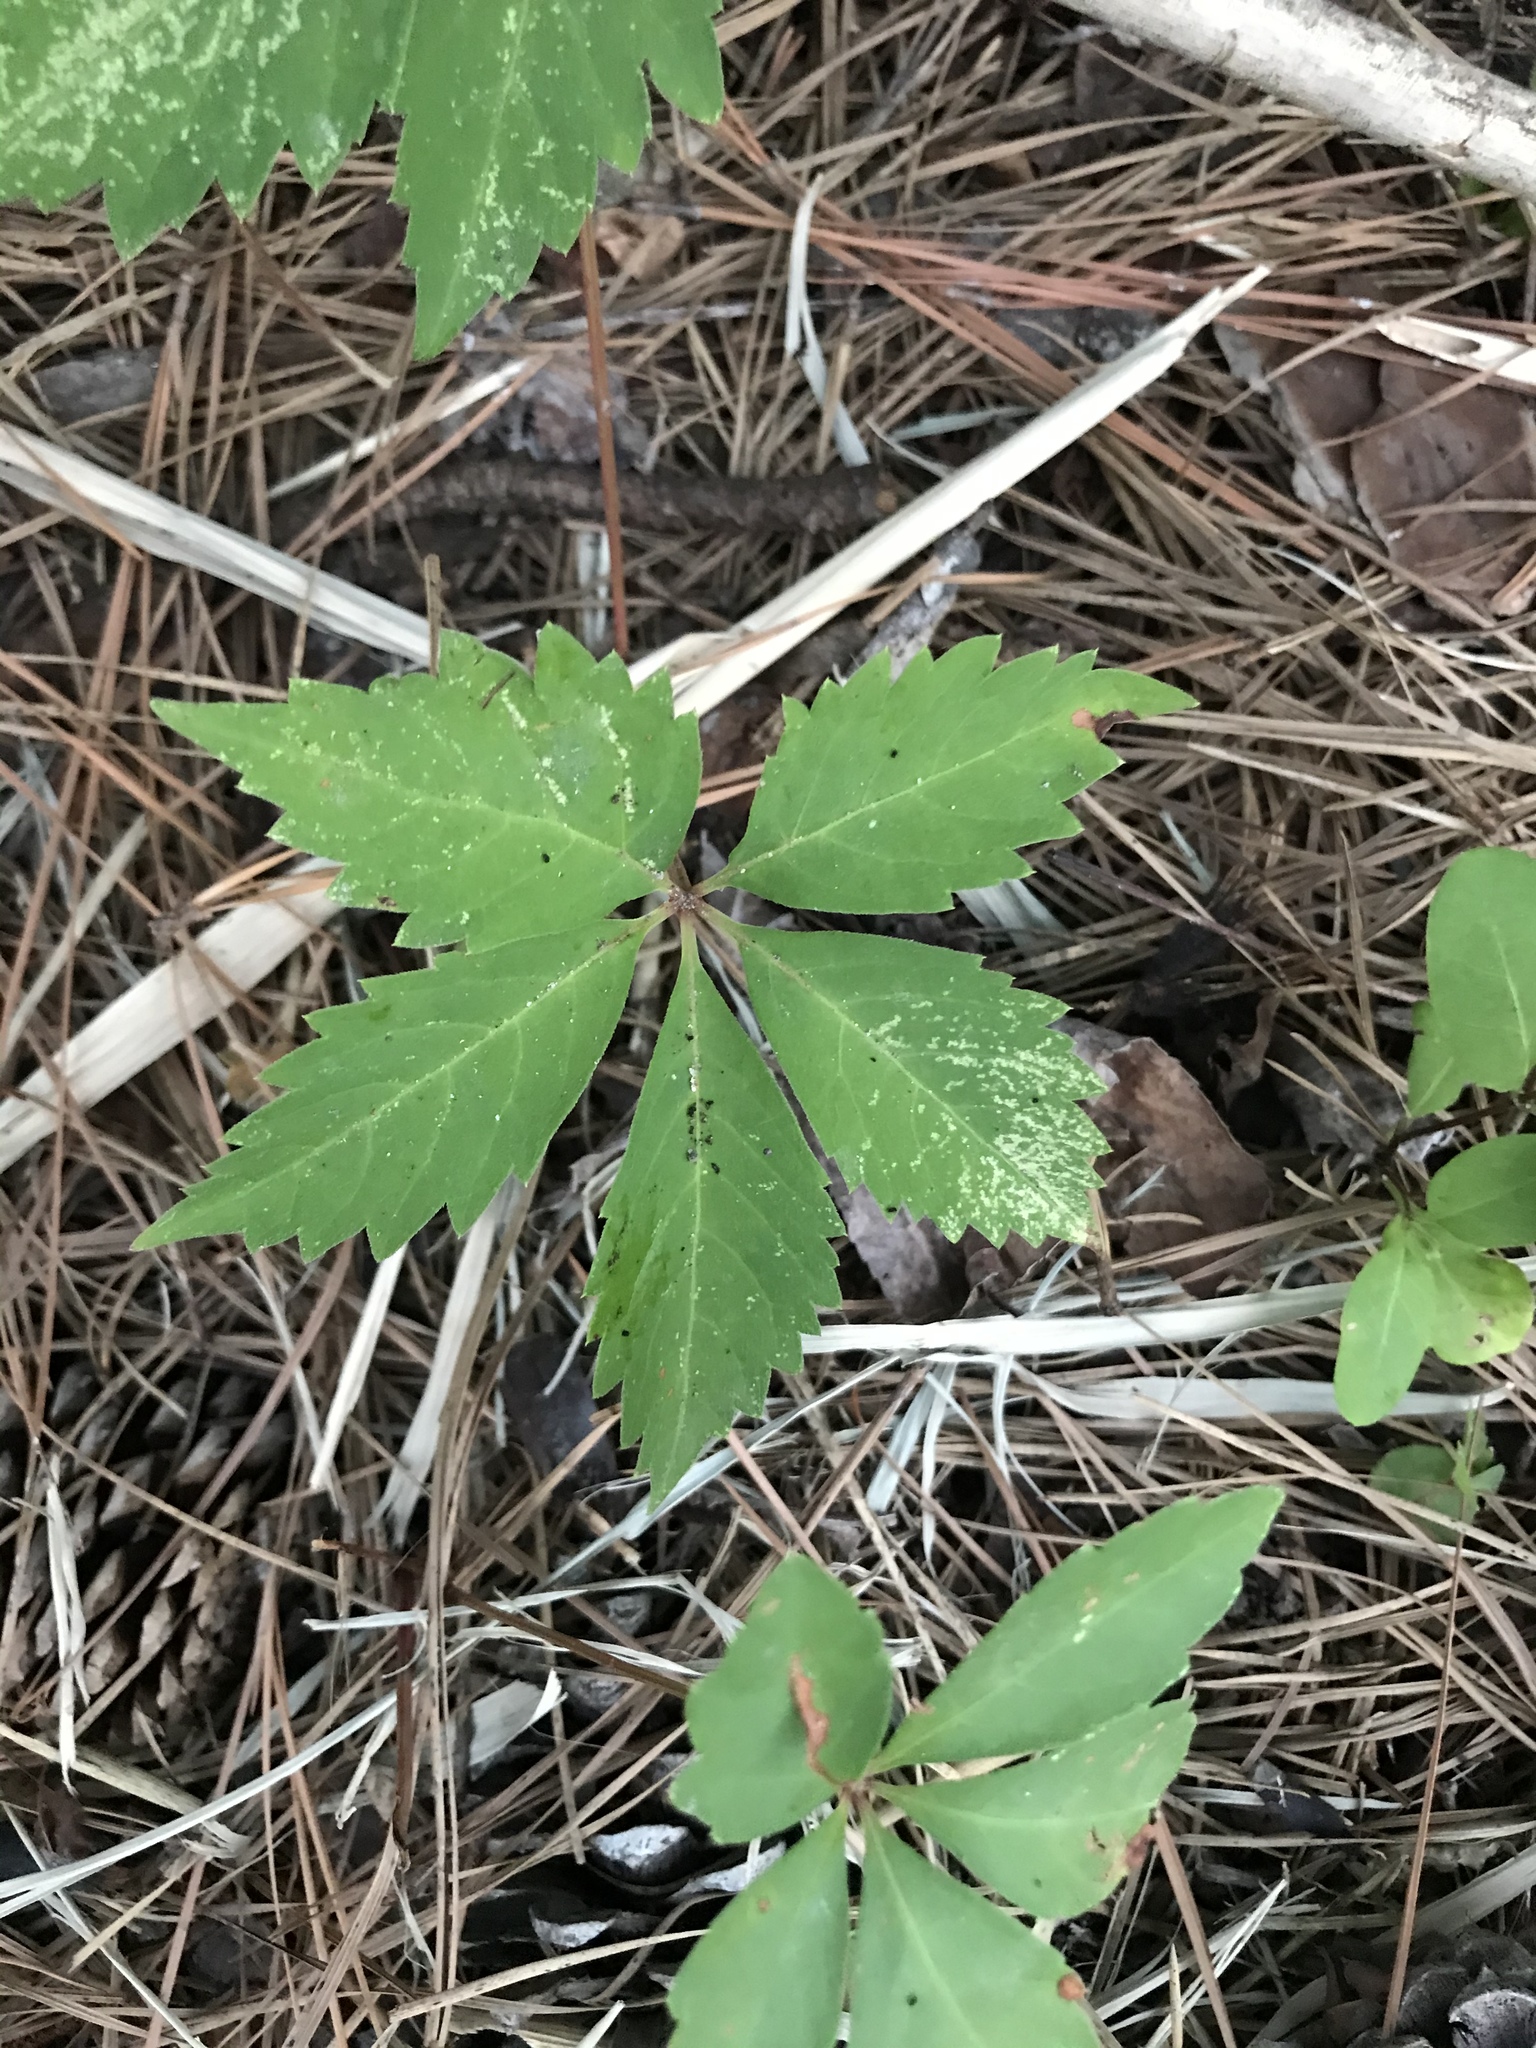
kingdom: Plantae
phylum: Tracheophyta
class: Magnoliopsida
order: Vitales
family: Vitaceae
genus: Parthenocissus
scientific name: Parthenocissus quinquefolia
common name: Virginia-creeper
